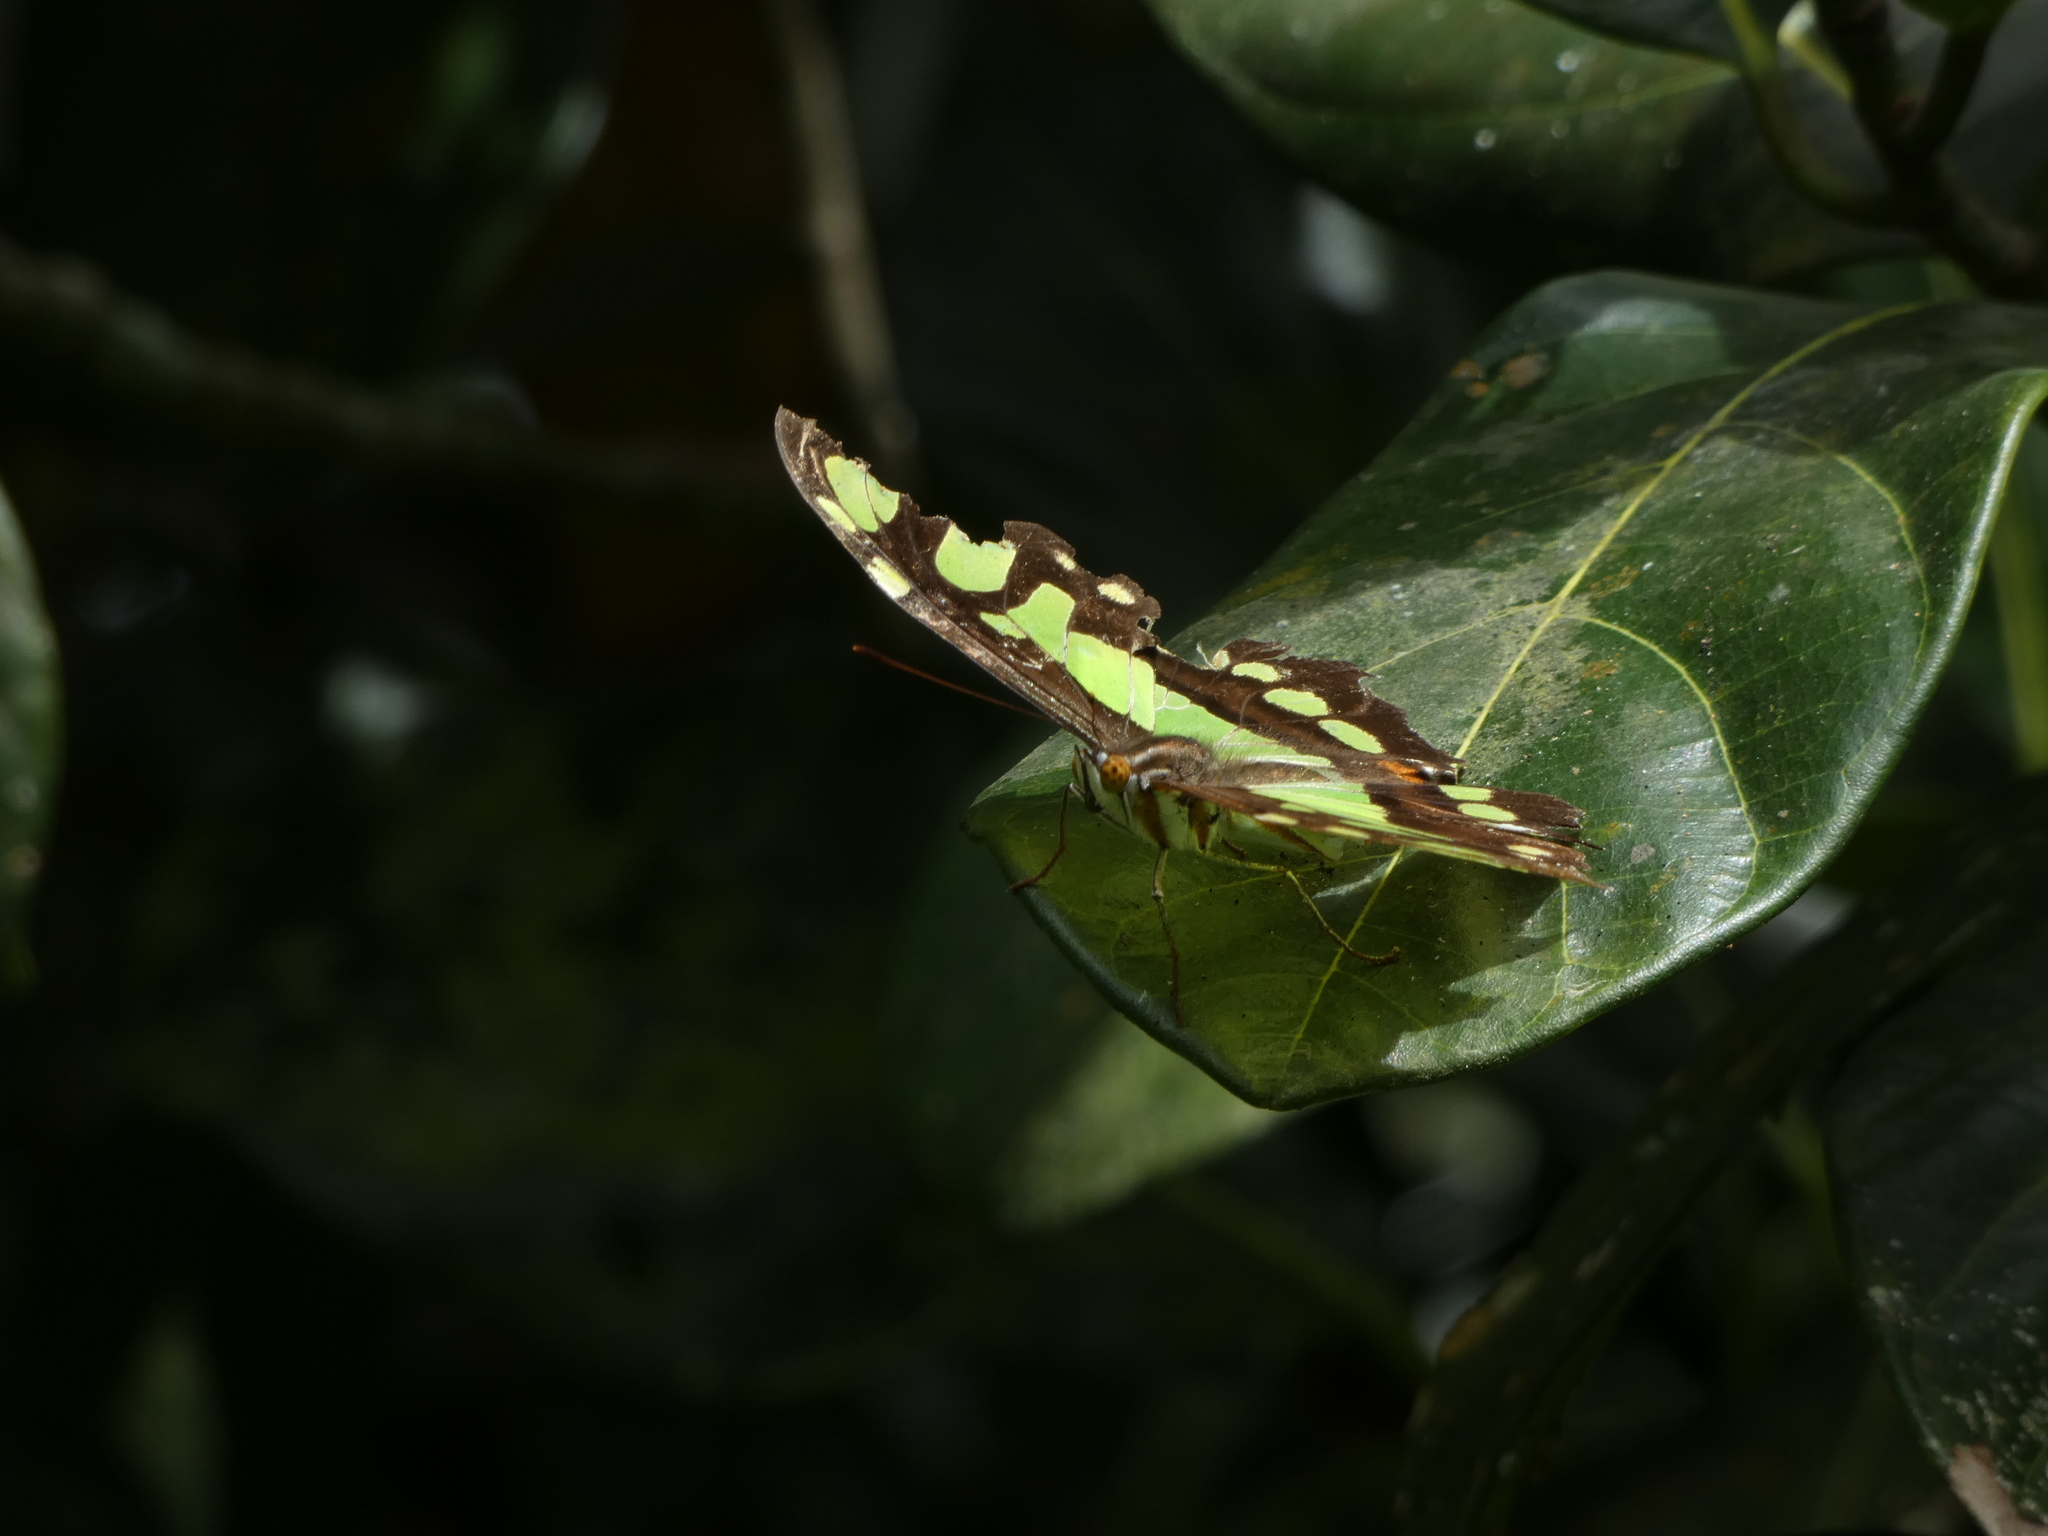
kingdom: Animalia
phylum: Arthropoda
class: Insecta
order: Lepidoptera
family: Nymphalidae
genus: Siproeta
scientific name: Siproeta stelenes
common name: Malachite
